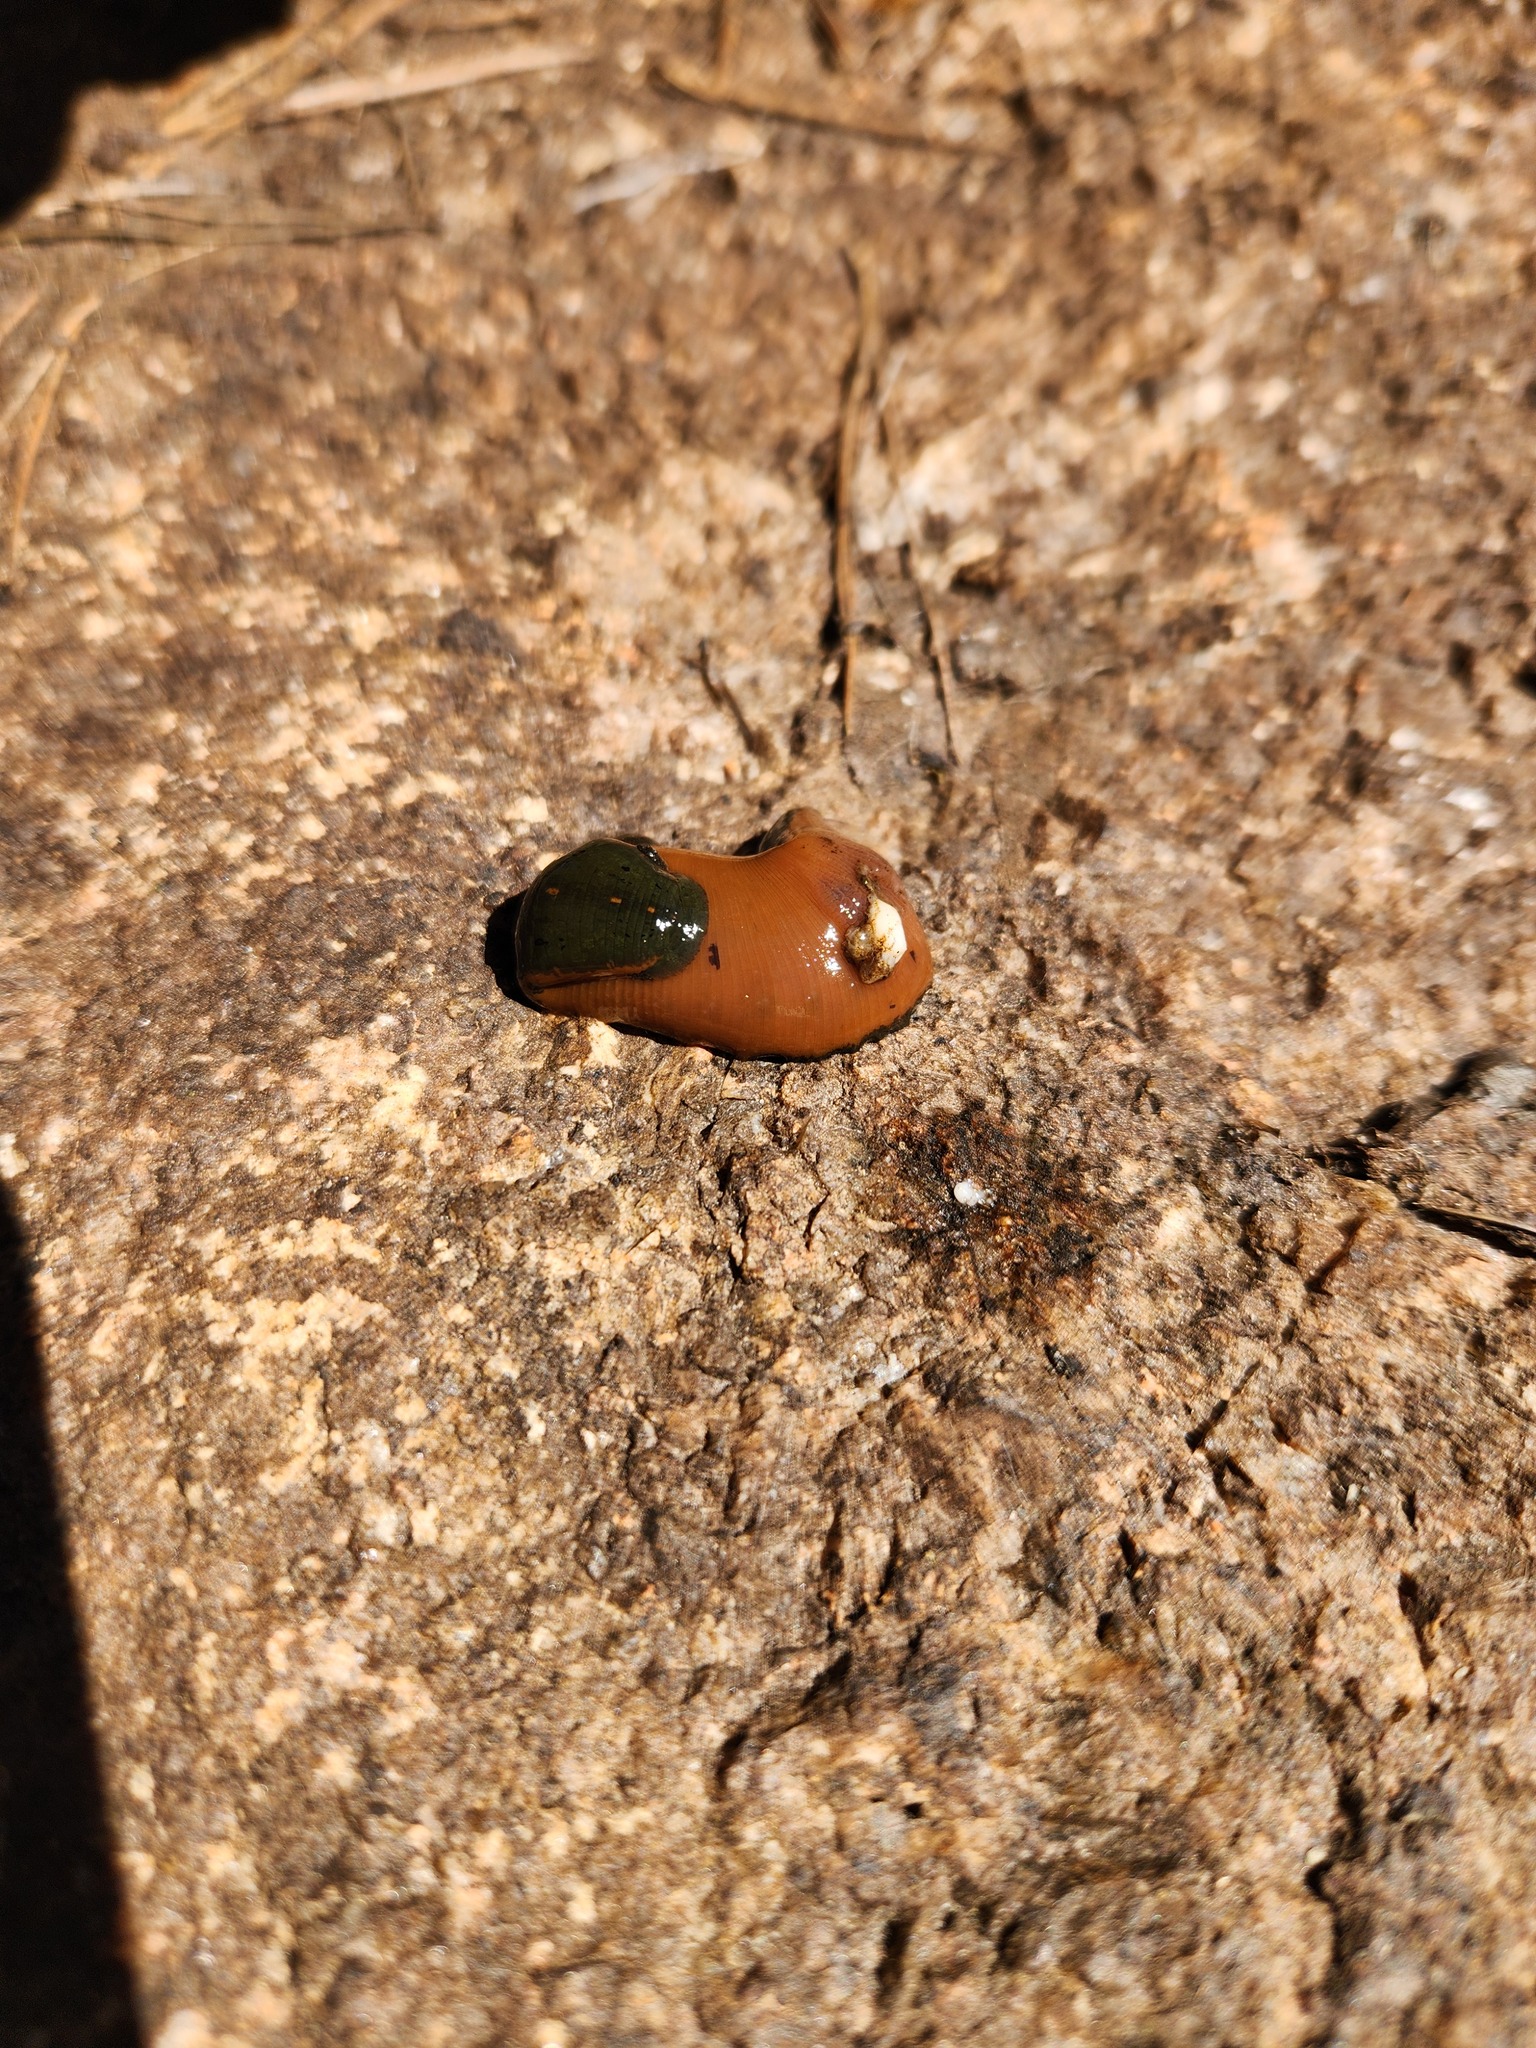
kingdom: Animalia
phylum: Annelida
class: Clitellata
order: Arhynchobdellida
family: Hirudinidae
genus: Macrobdella
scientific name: Macrobdella decora
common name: North american leech
